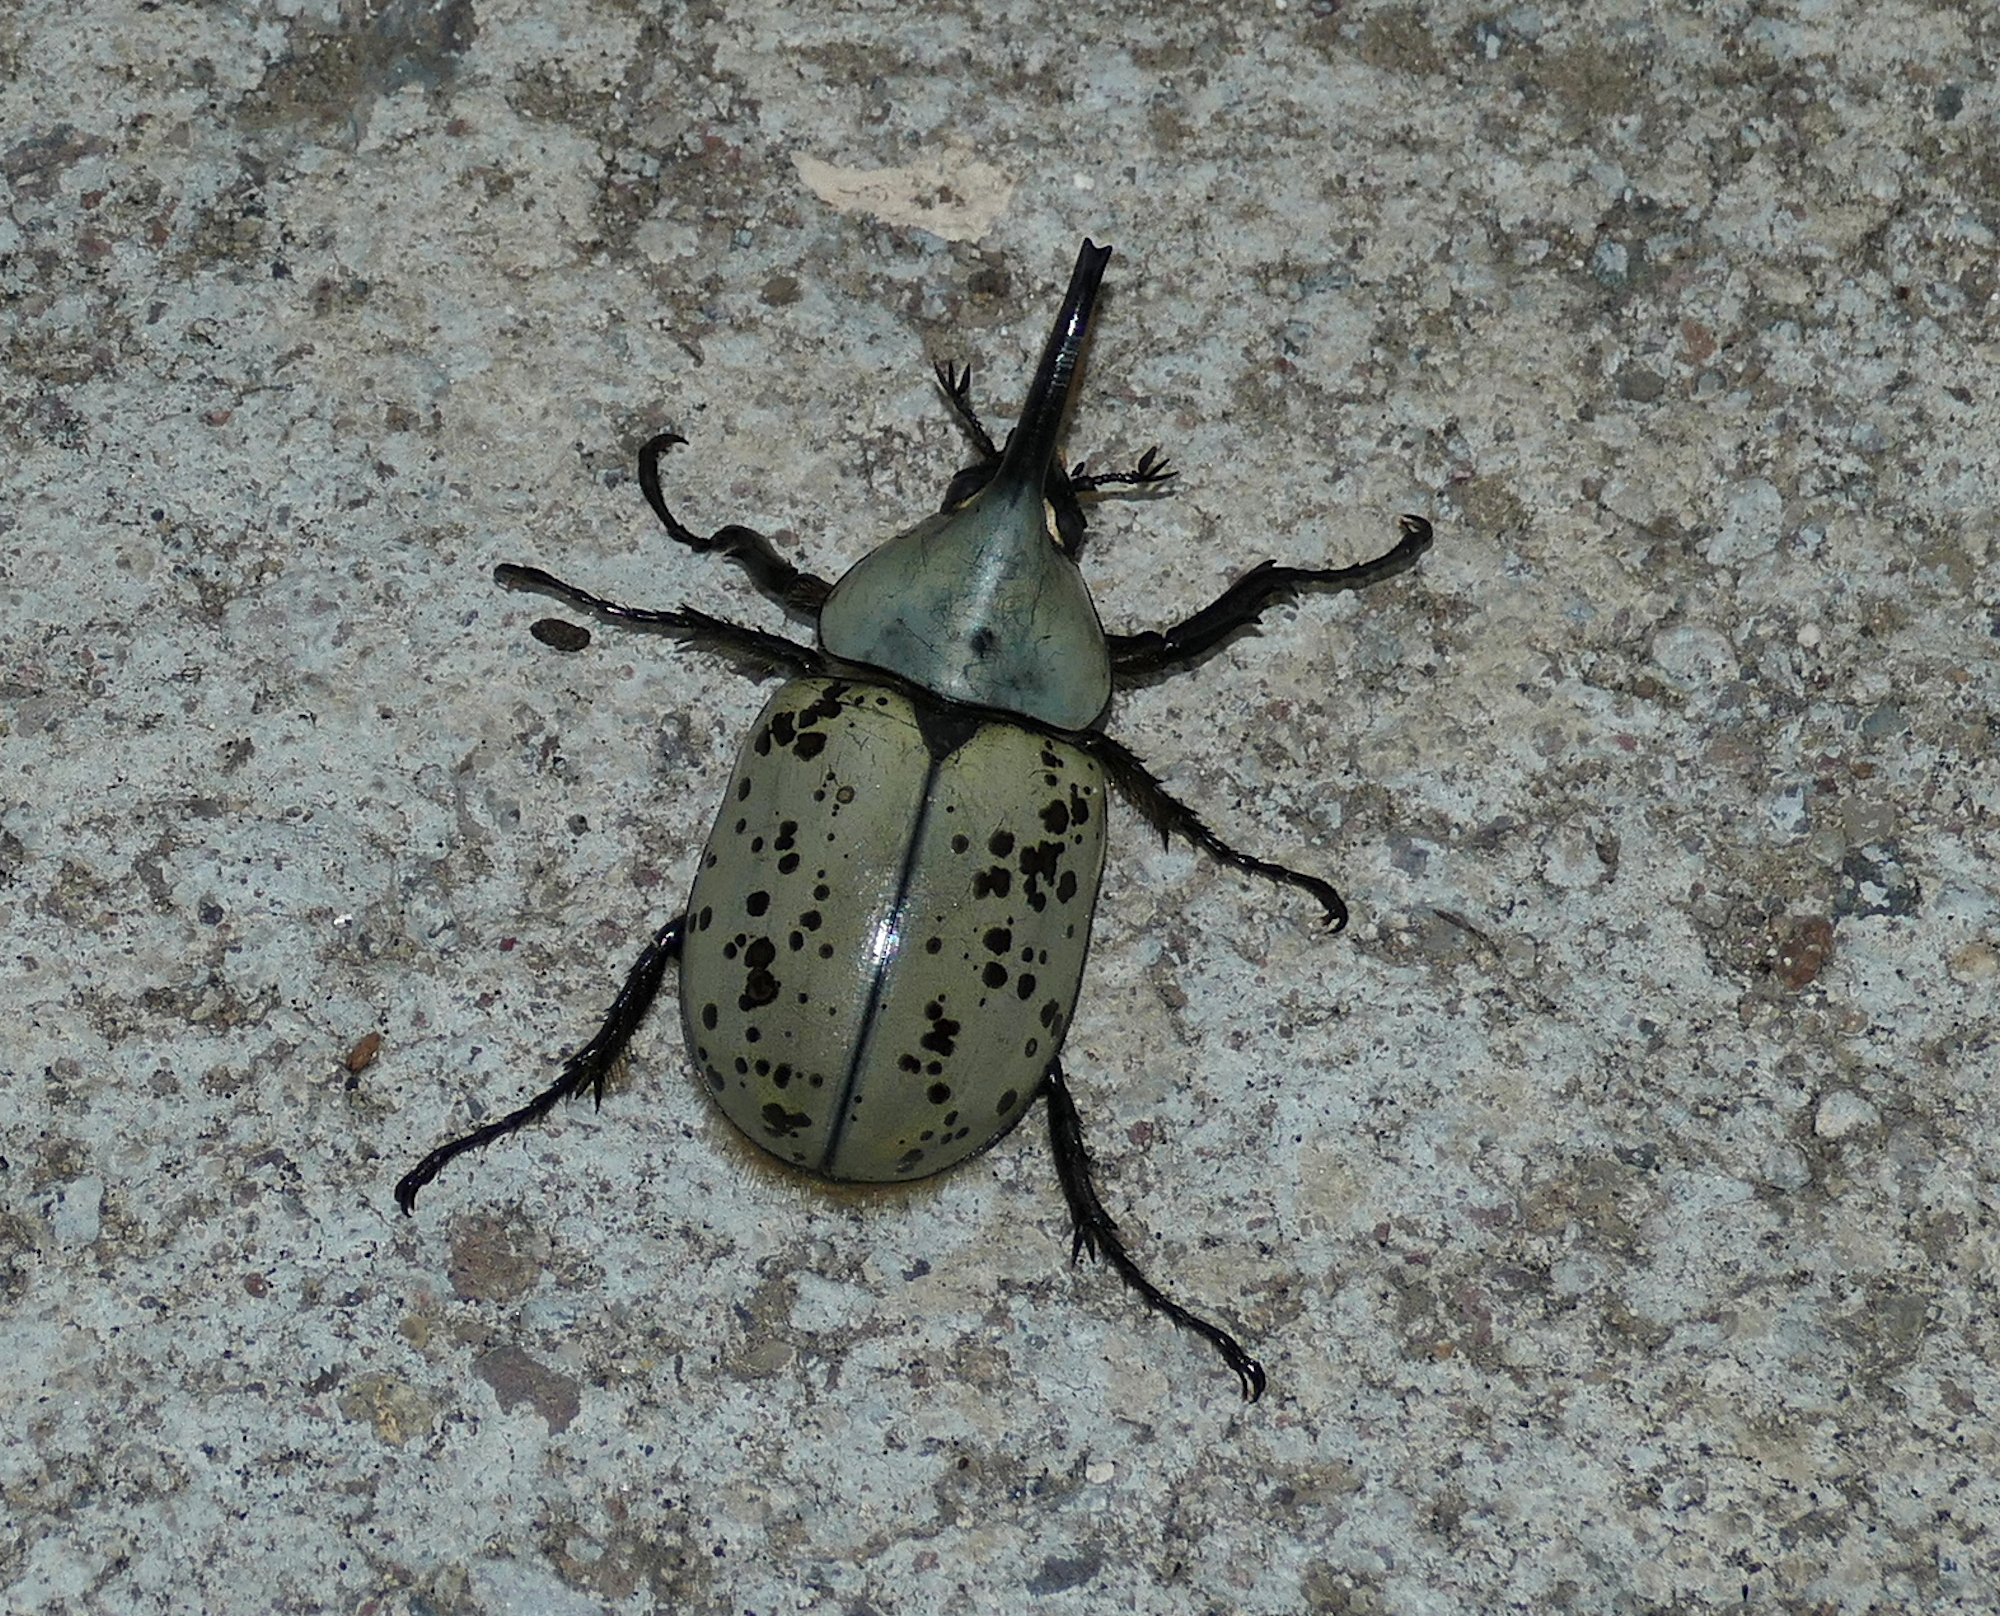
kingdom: Animalia
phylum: Arthropoda
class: Insecta
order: Coleoptera
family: Scarabaeidae
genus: Dynastes
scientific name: Dynastes grantii
